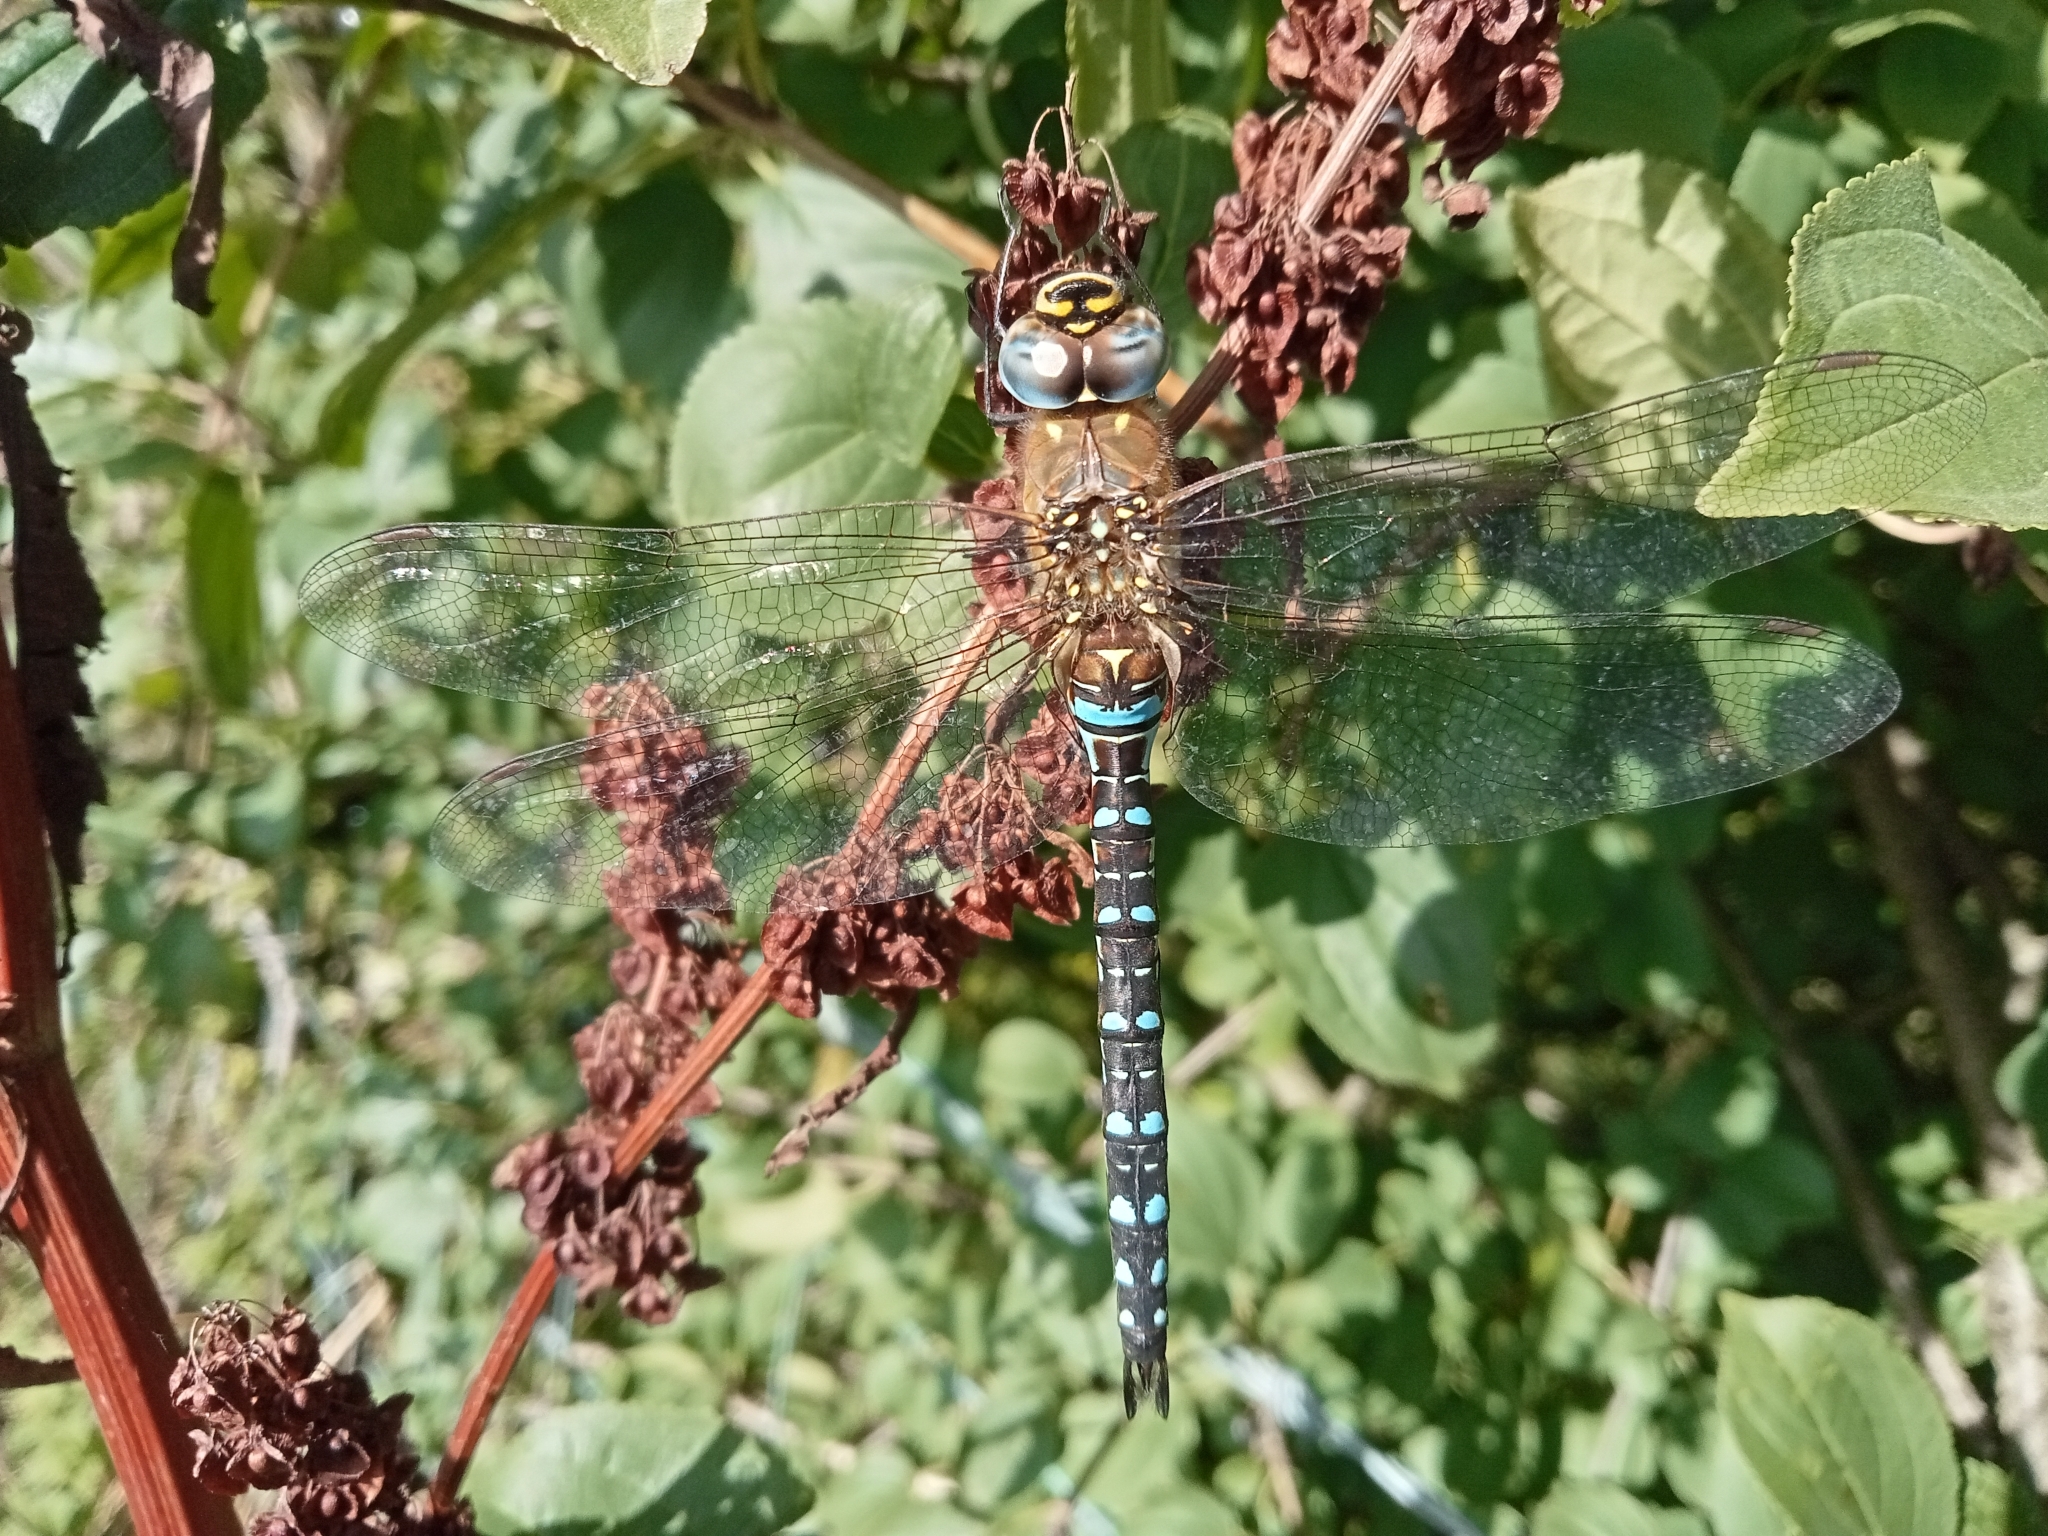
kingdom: Animalia
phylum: Arthropoda
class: Insecta
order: Odonata
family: Aeshnidae
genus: Aeshna
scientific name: Aeshna mixta
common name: Migrant hawker
